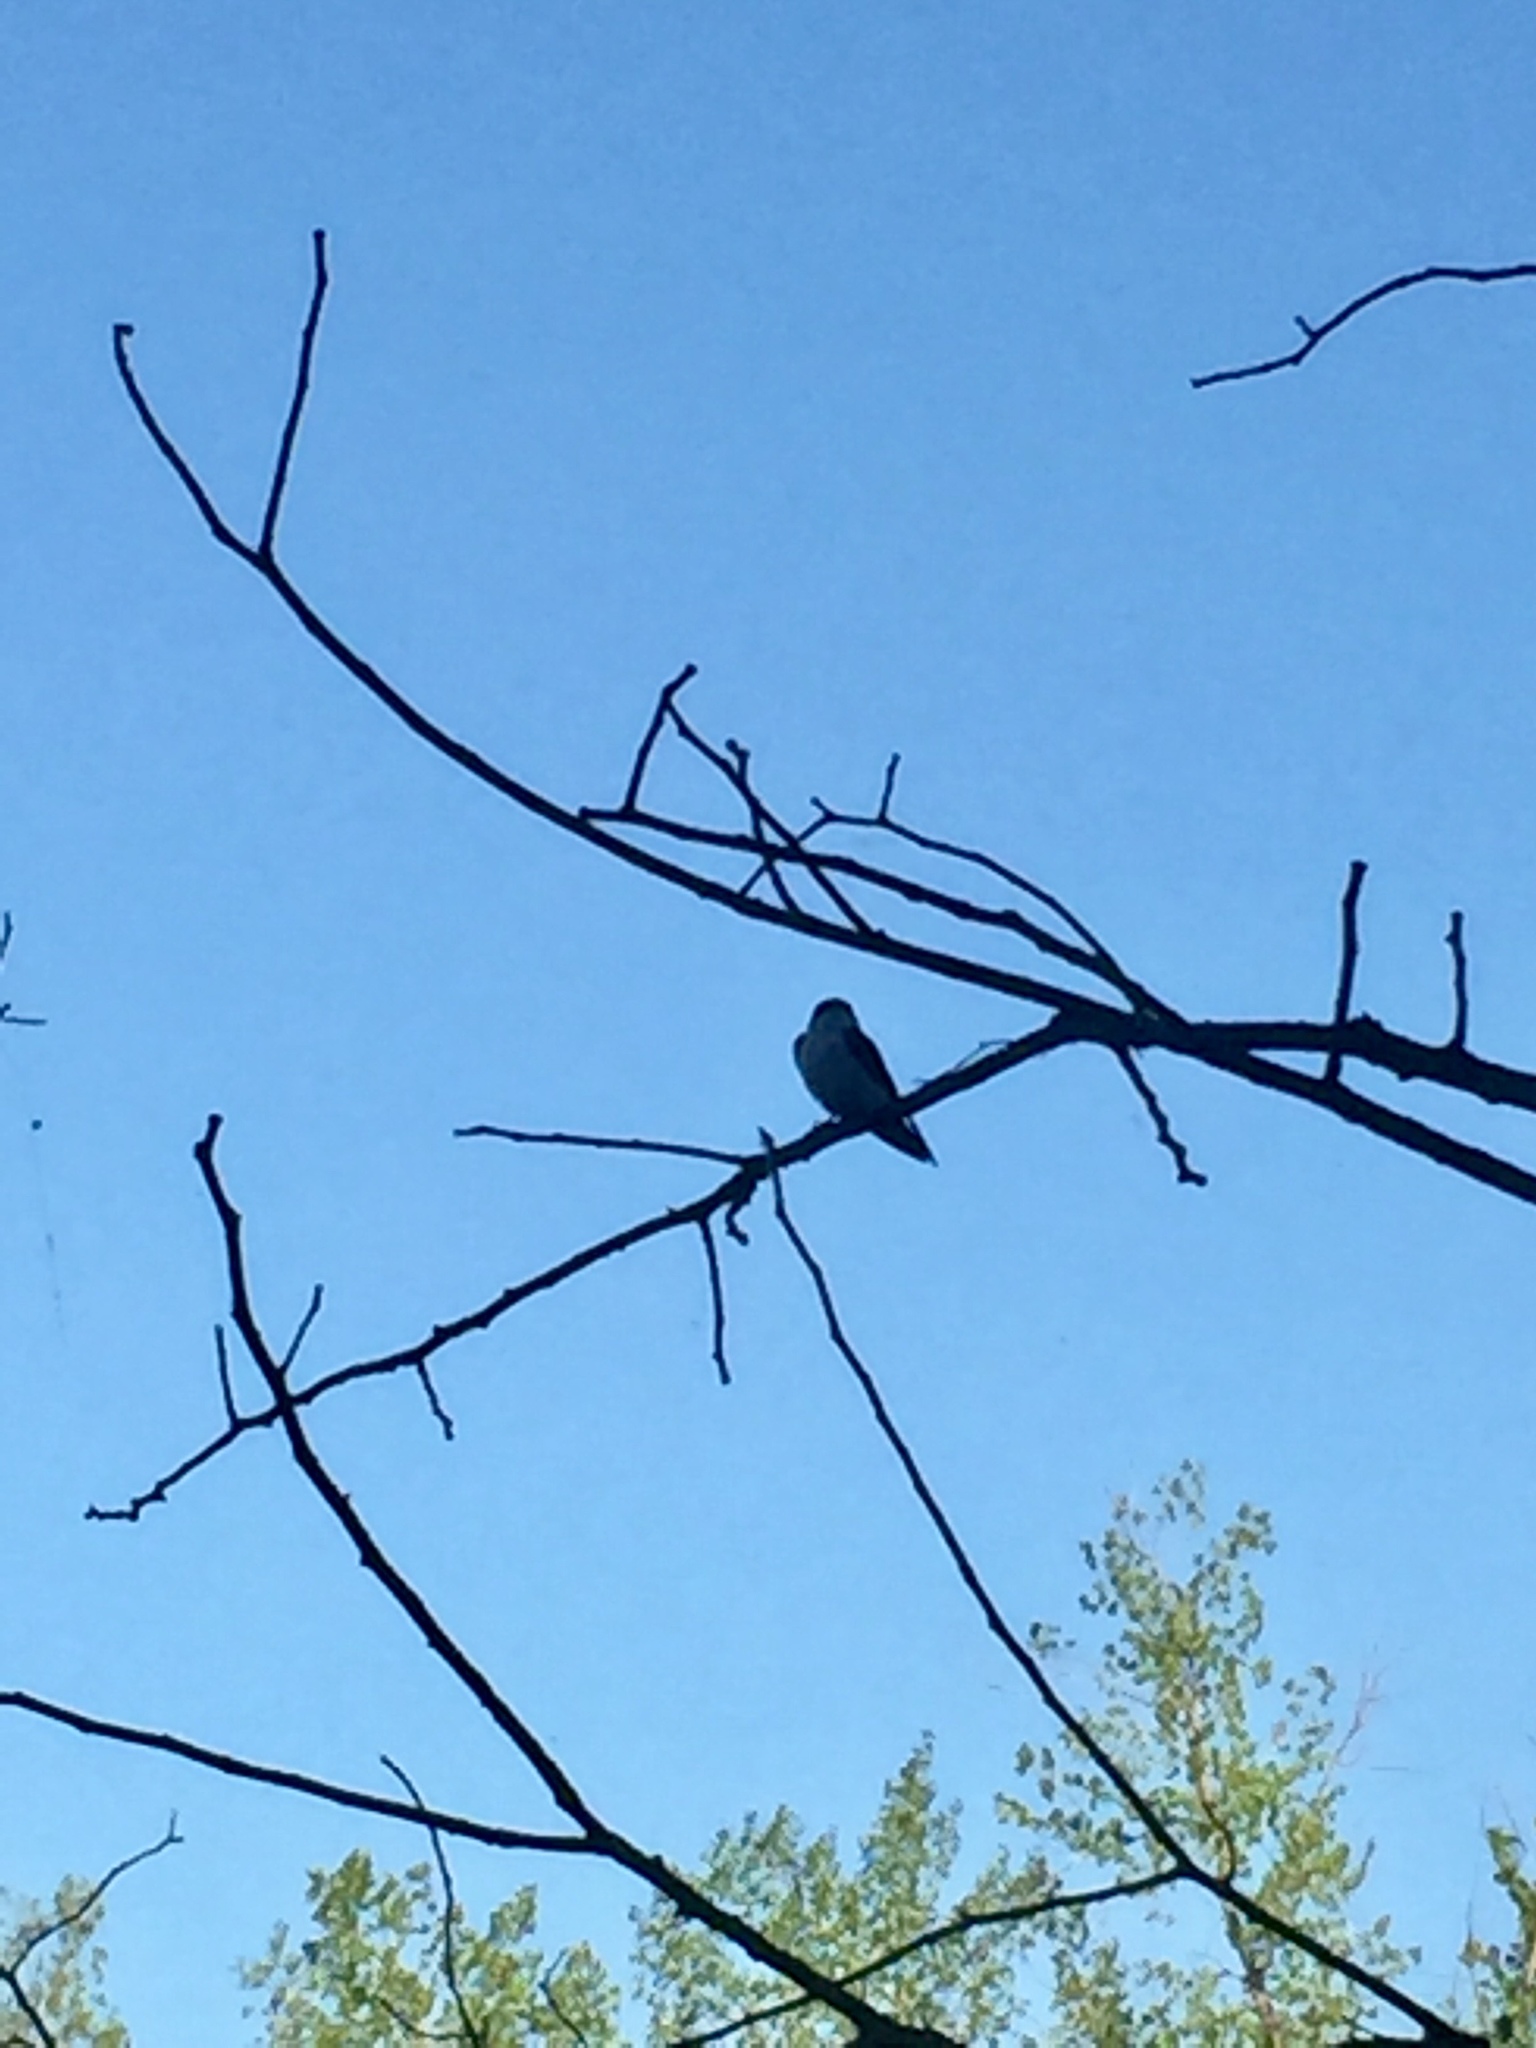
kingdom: Animalia
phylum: Chordata
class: Aves
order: Passeriformes
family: Hirundinidae
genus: Tachycineta
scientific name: Tachycineta bicolor
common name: Tree swallow
